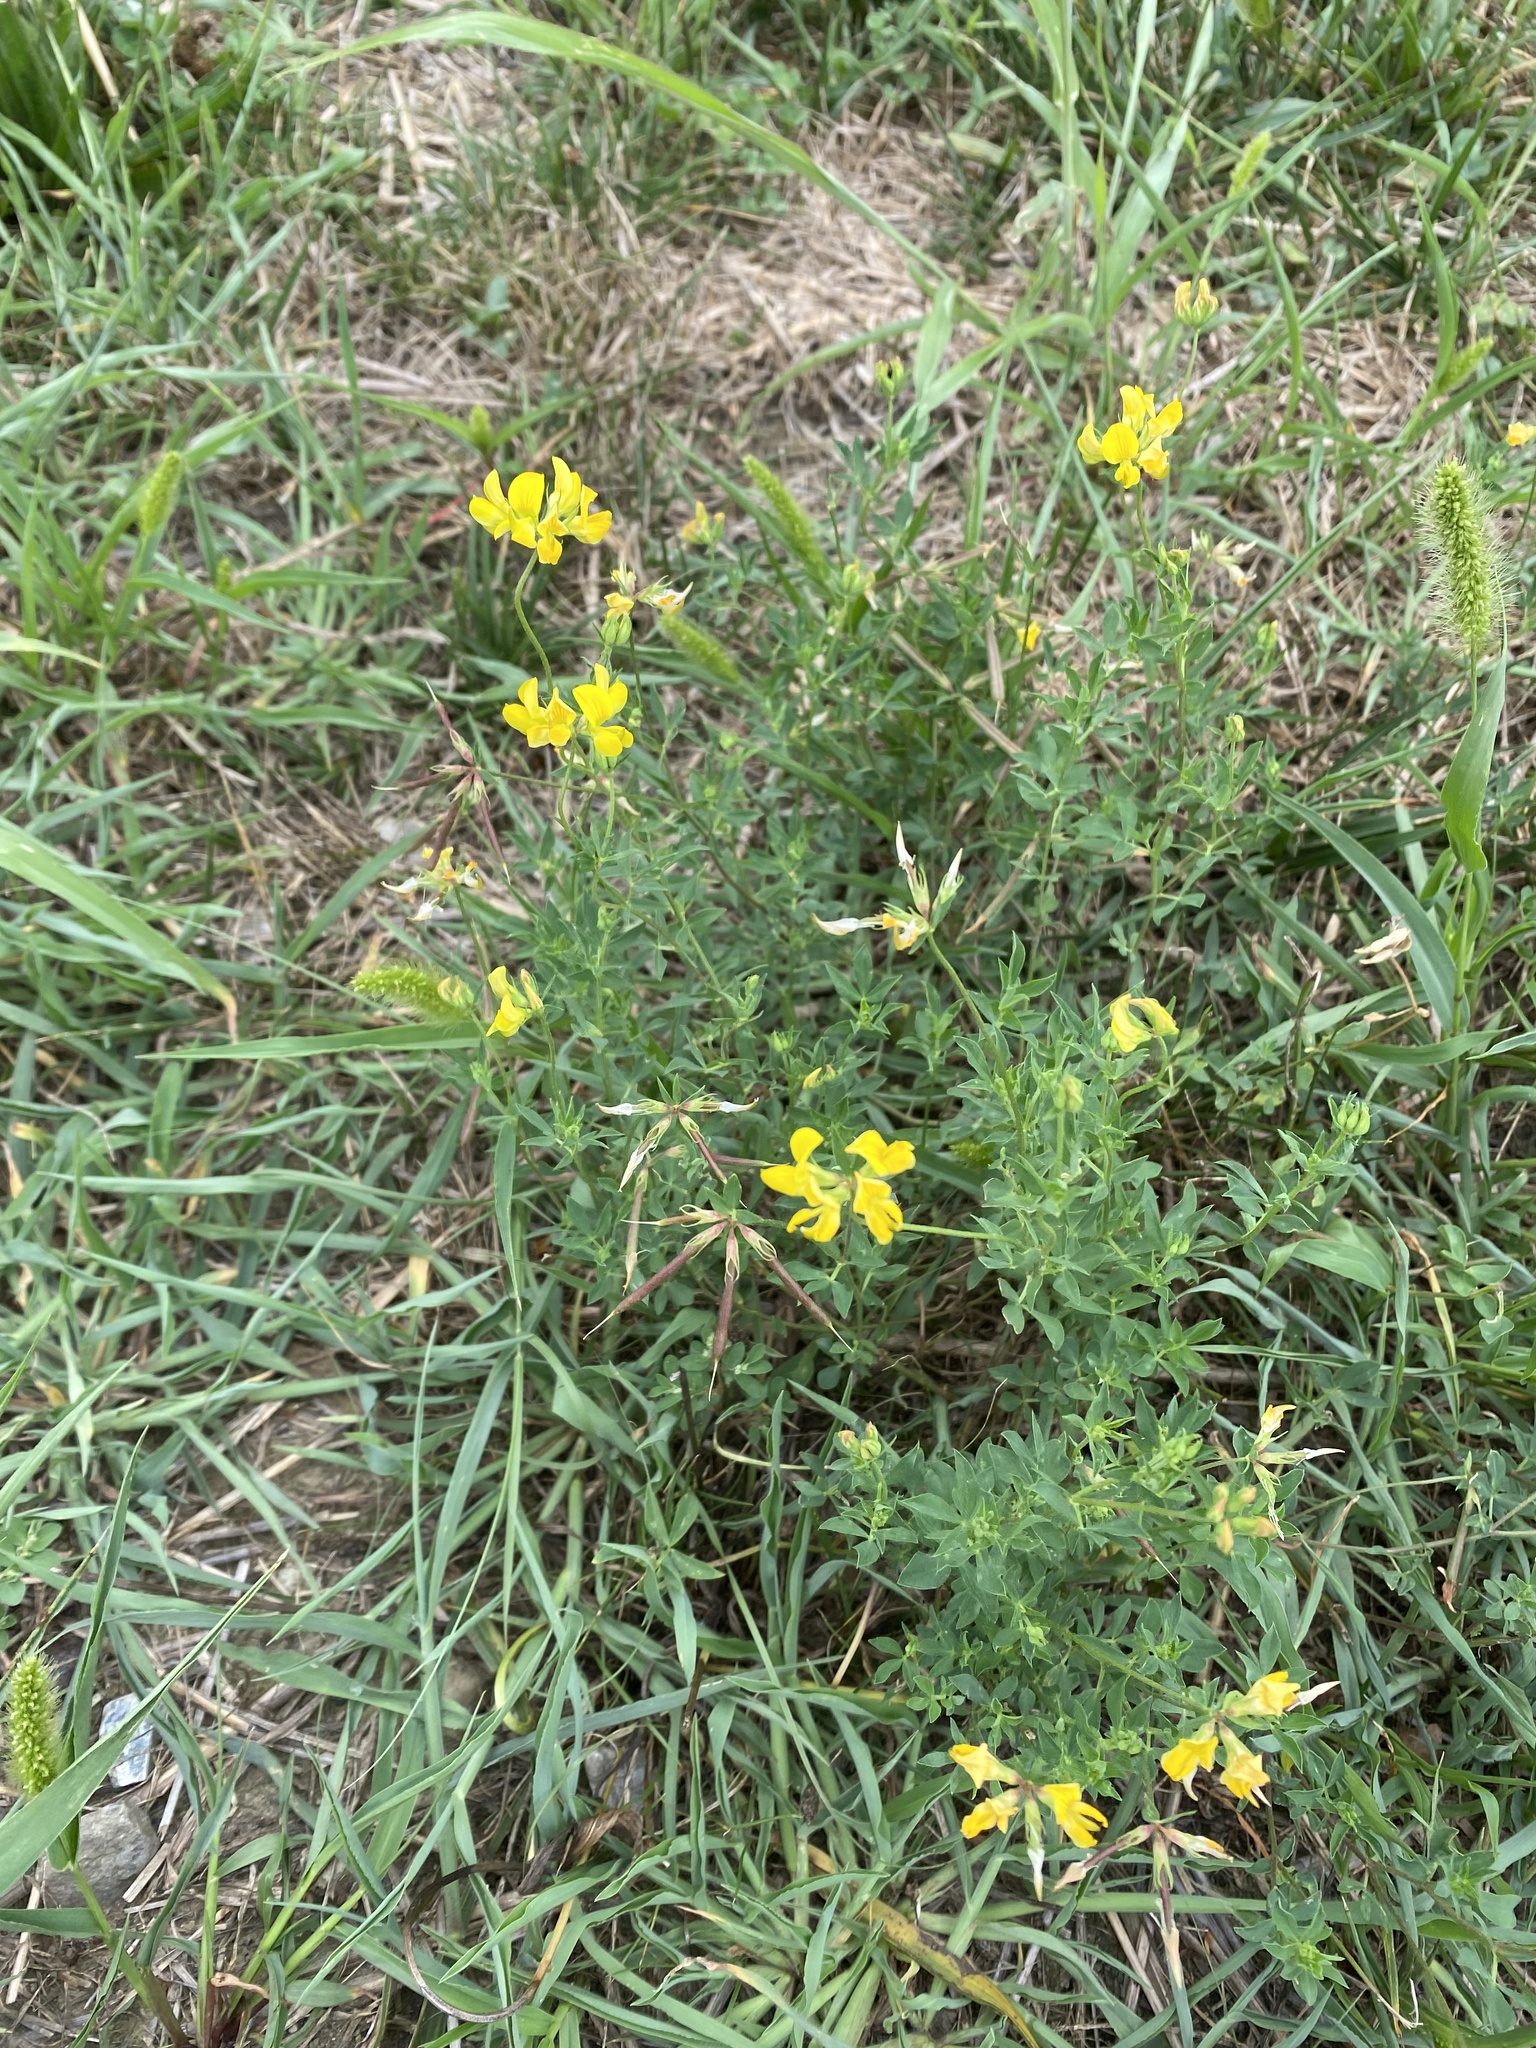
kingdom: Plantae
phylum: Tracheophyta
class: Magnoliopsida
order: Fabales
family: Fabaceae
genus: Lotus
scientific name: Lotus corniculatus
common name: Common bird's-foot-trefoil
